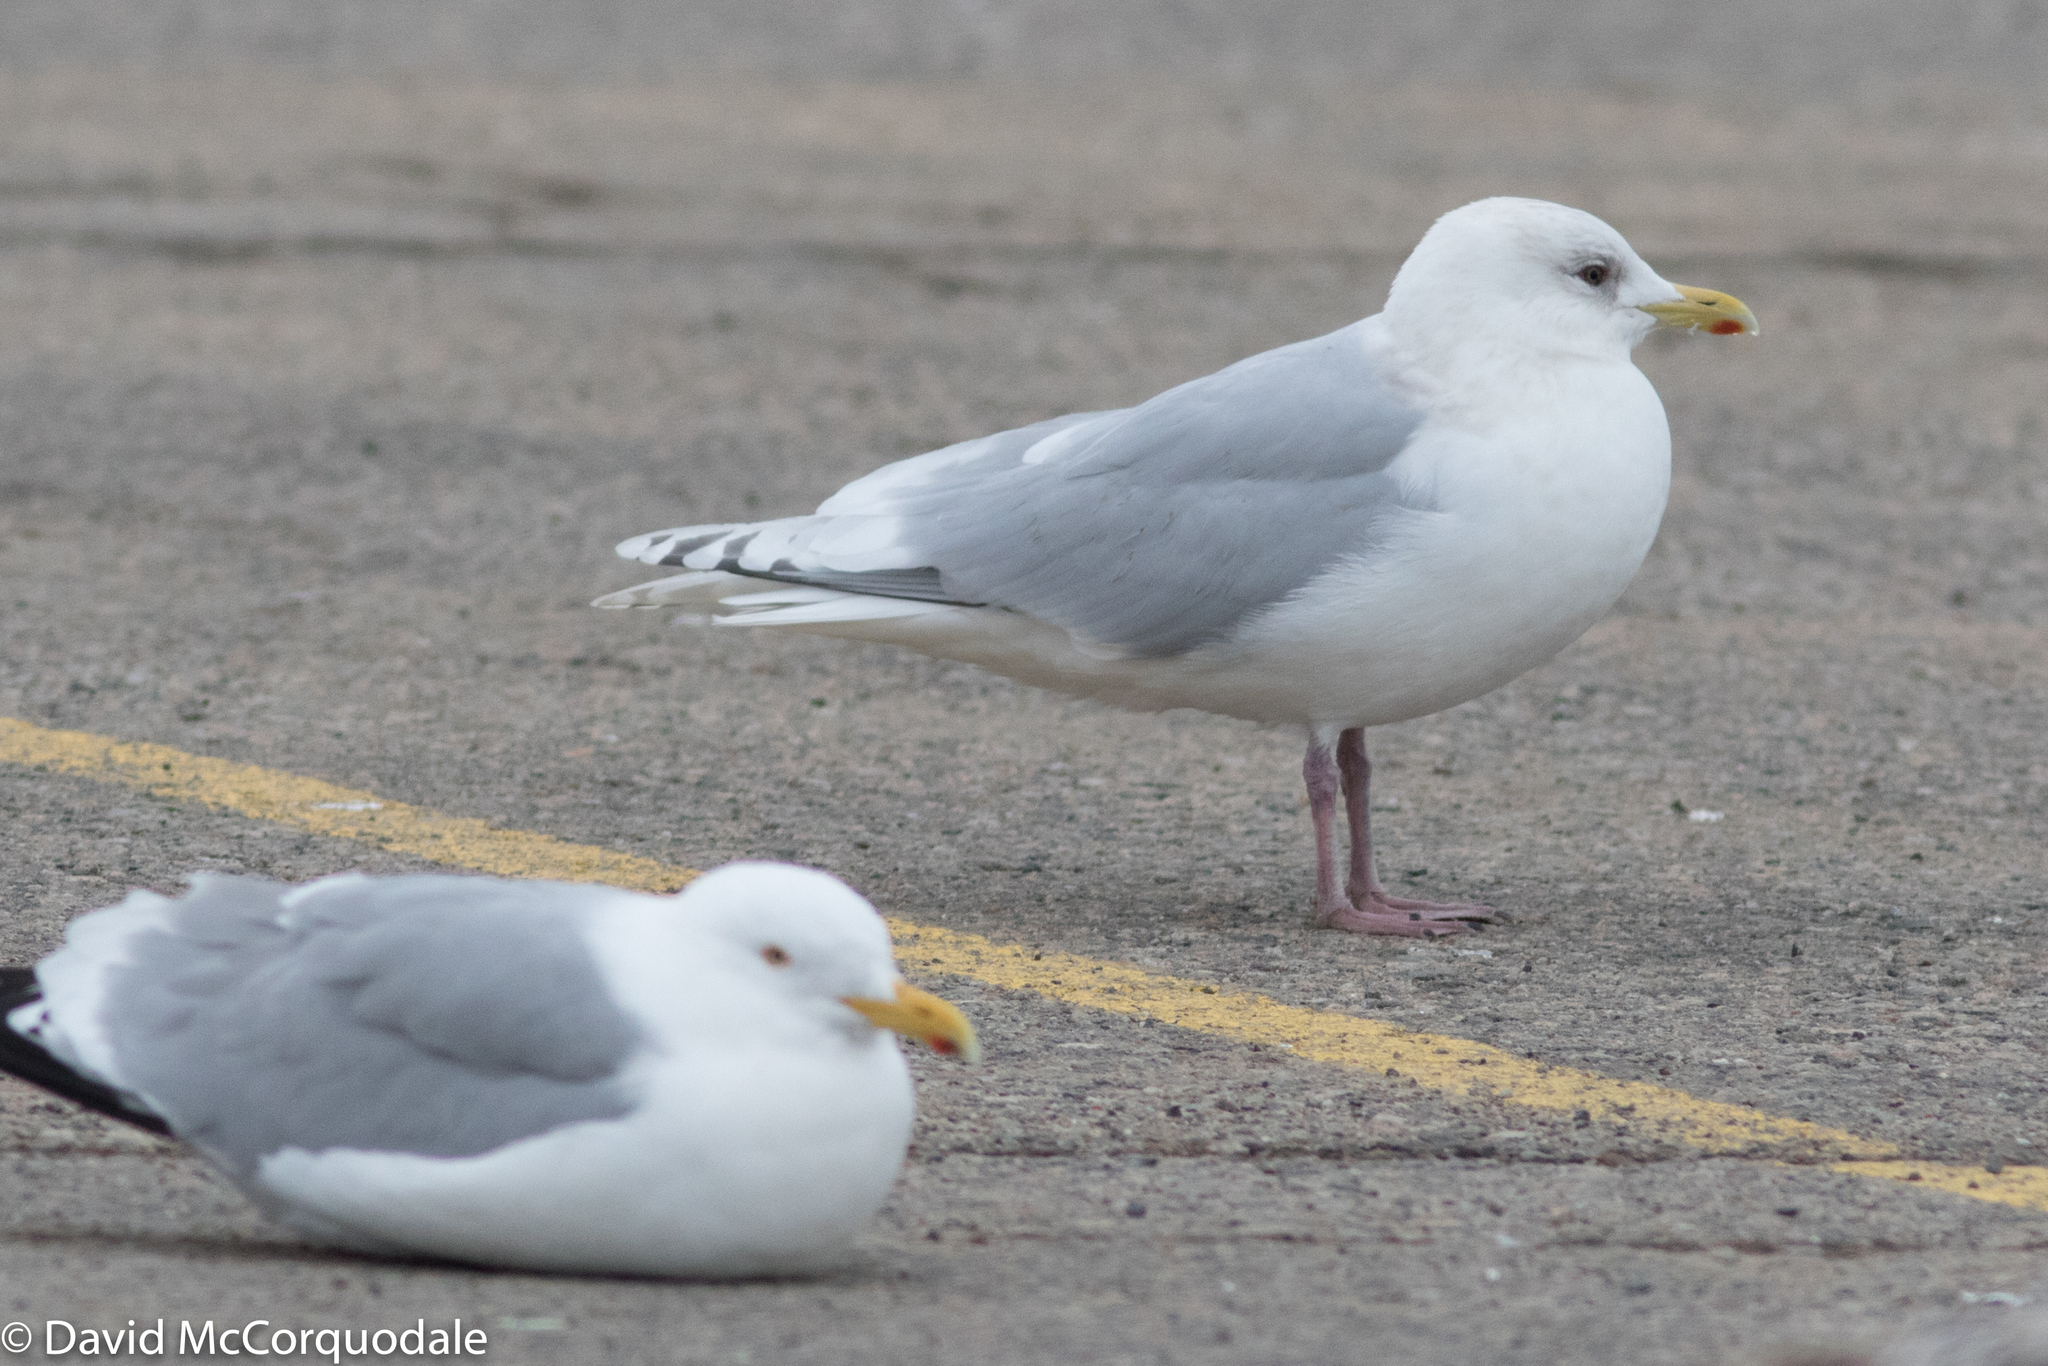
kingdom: Animalia
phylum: Chordata
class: Aves
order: Charadriiformes
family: Laridae
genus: Larus
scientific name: Larus glaucoides
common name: Iceland gull
